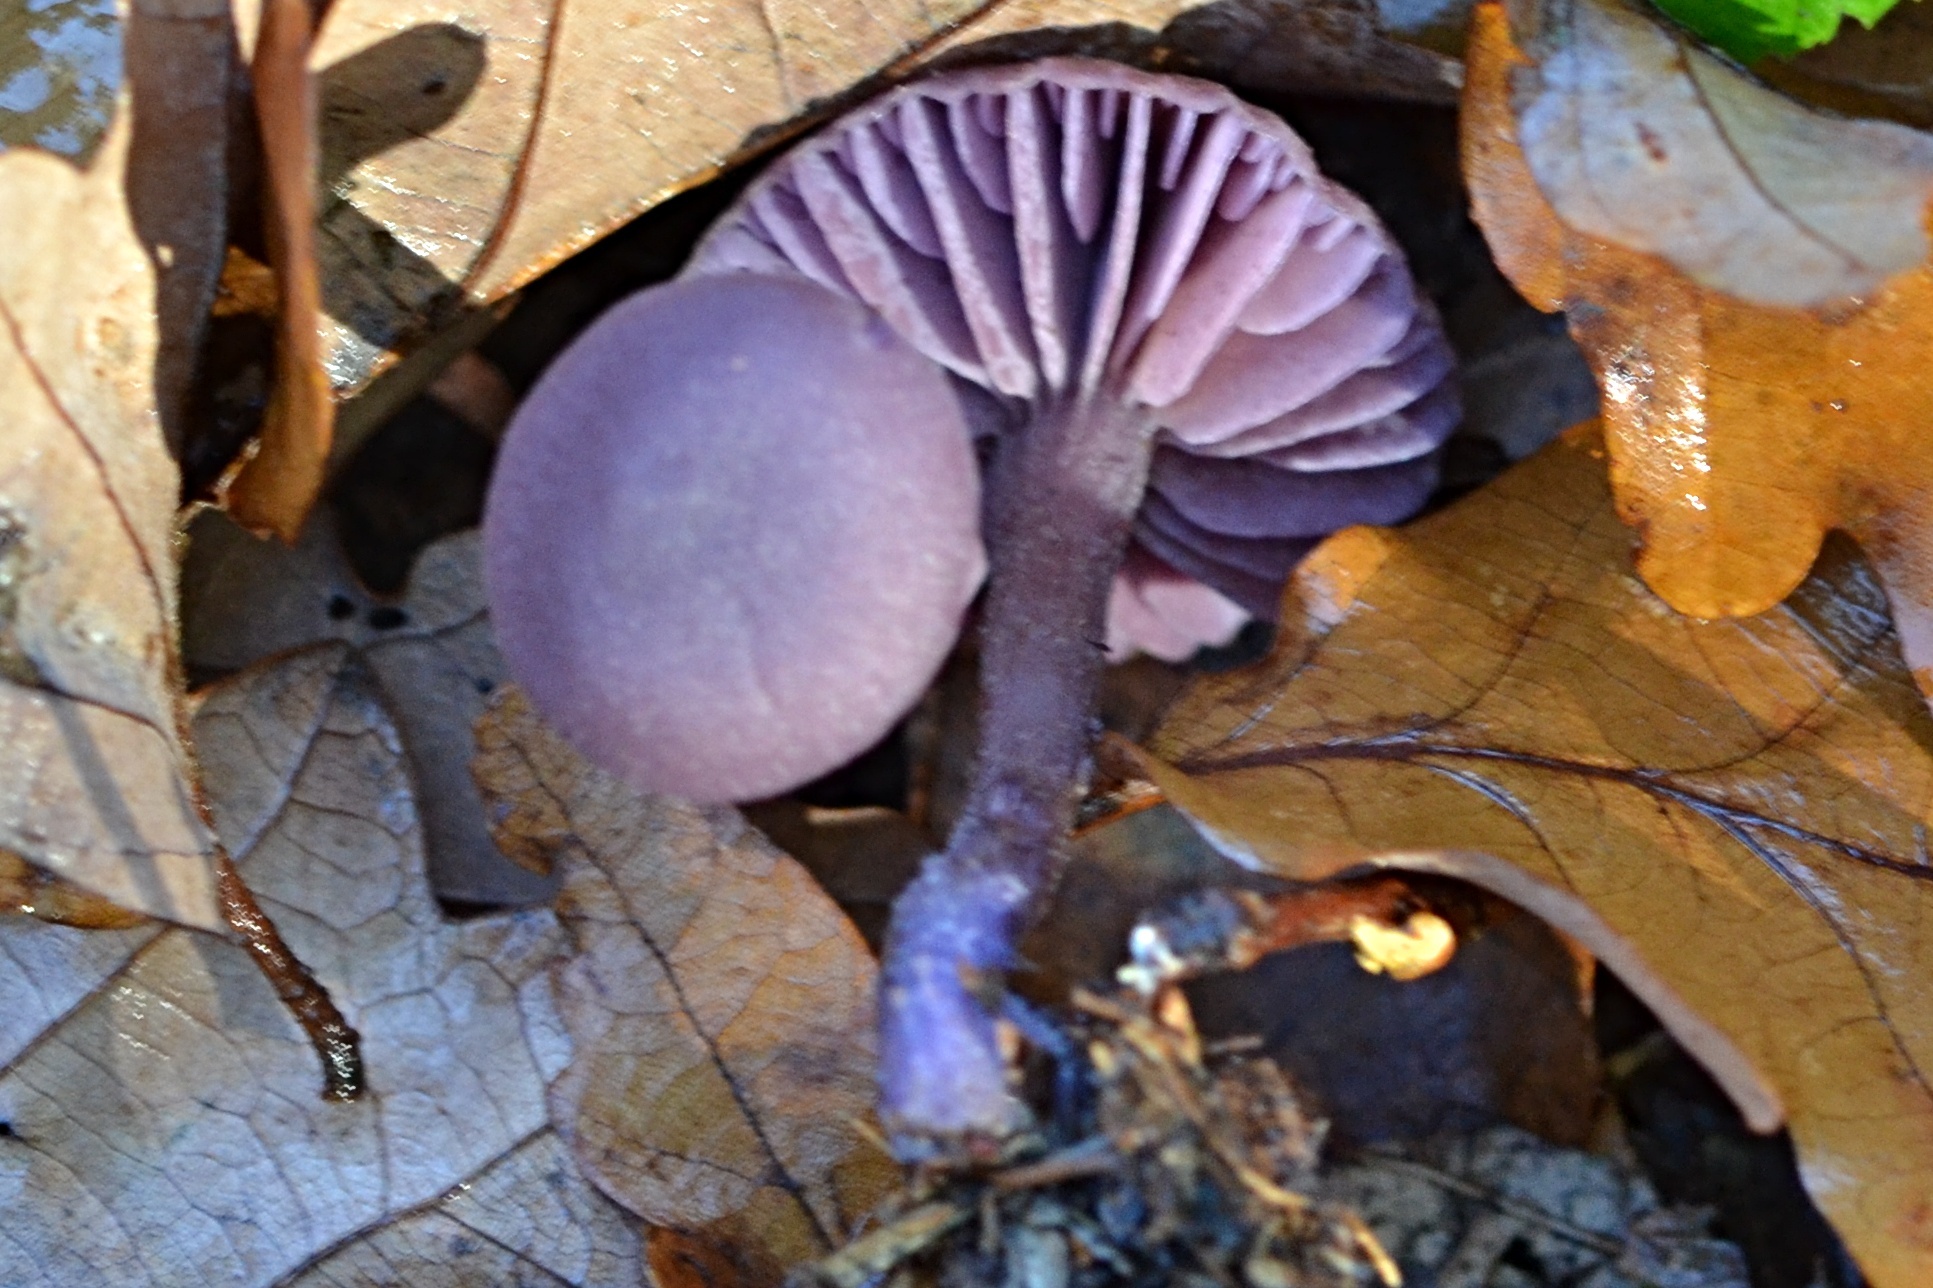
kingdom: Fungi
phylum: Basidiomycota
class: Agaricomycetes
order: Agaricales
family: Hydnangiaceae
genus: Laccaria
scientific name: Laccaria amethystina
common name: Amethyst deceiver
